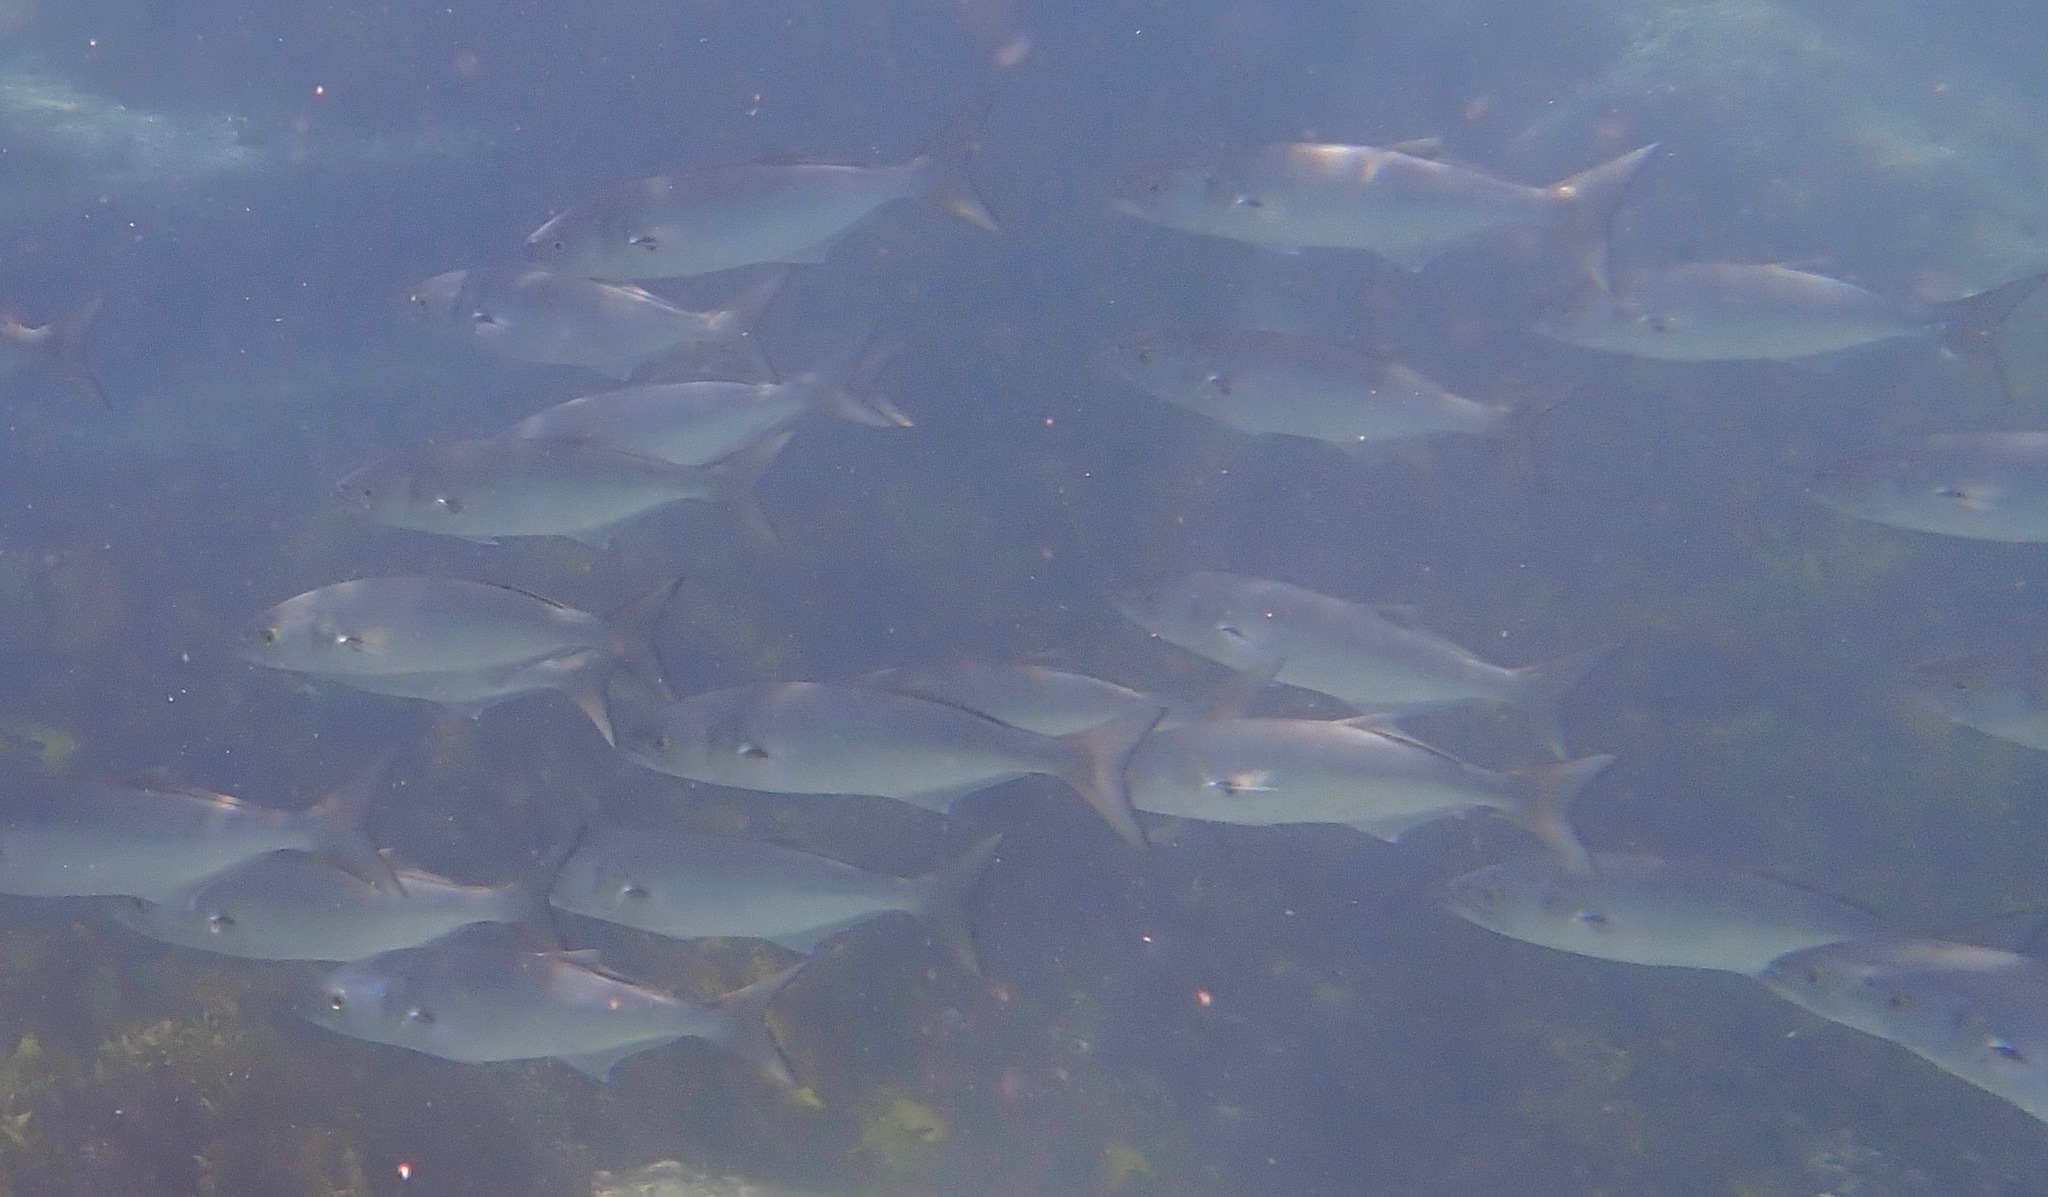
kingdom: Animalia
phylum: Chordata
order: Perciformes
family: Pomatomidae
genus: Pomatomus
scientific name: Pomatomus saltatrix
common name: Bluefish
